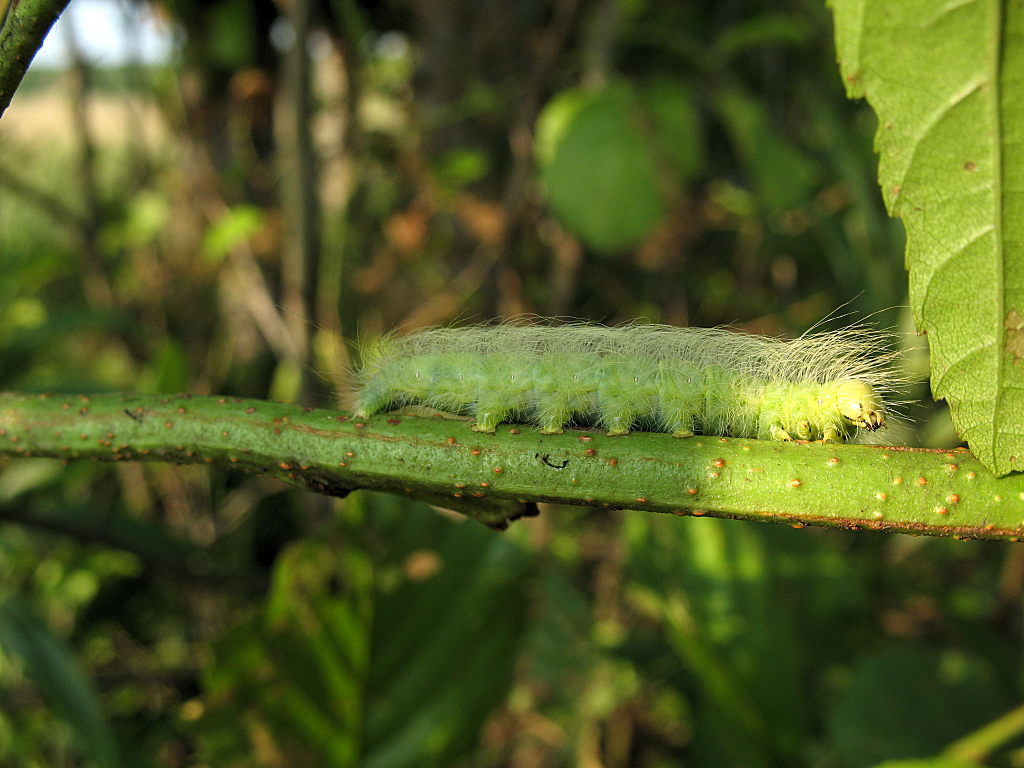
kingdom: Animalia
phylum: Arthropoda
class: Insecta
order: Lepidoptera
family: Noctuidae
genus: Acronicta
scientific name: Acronicta leporina
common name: Miller
